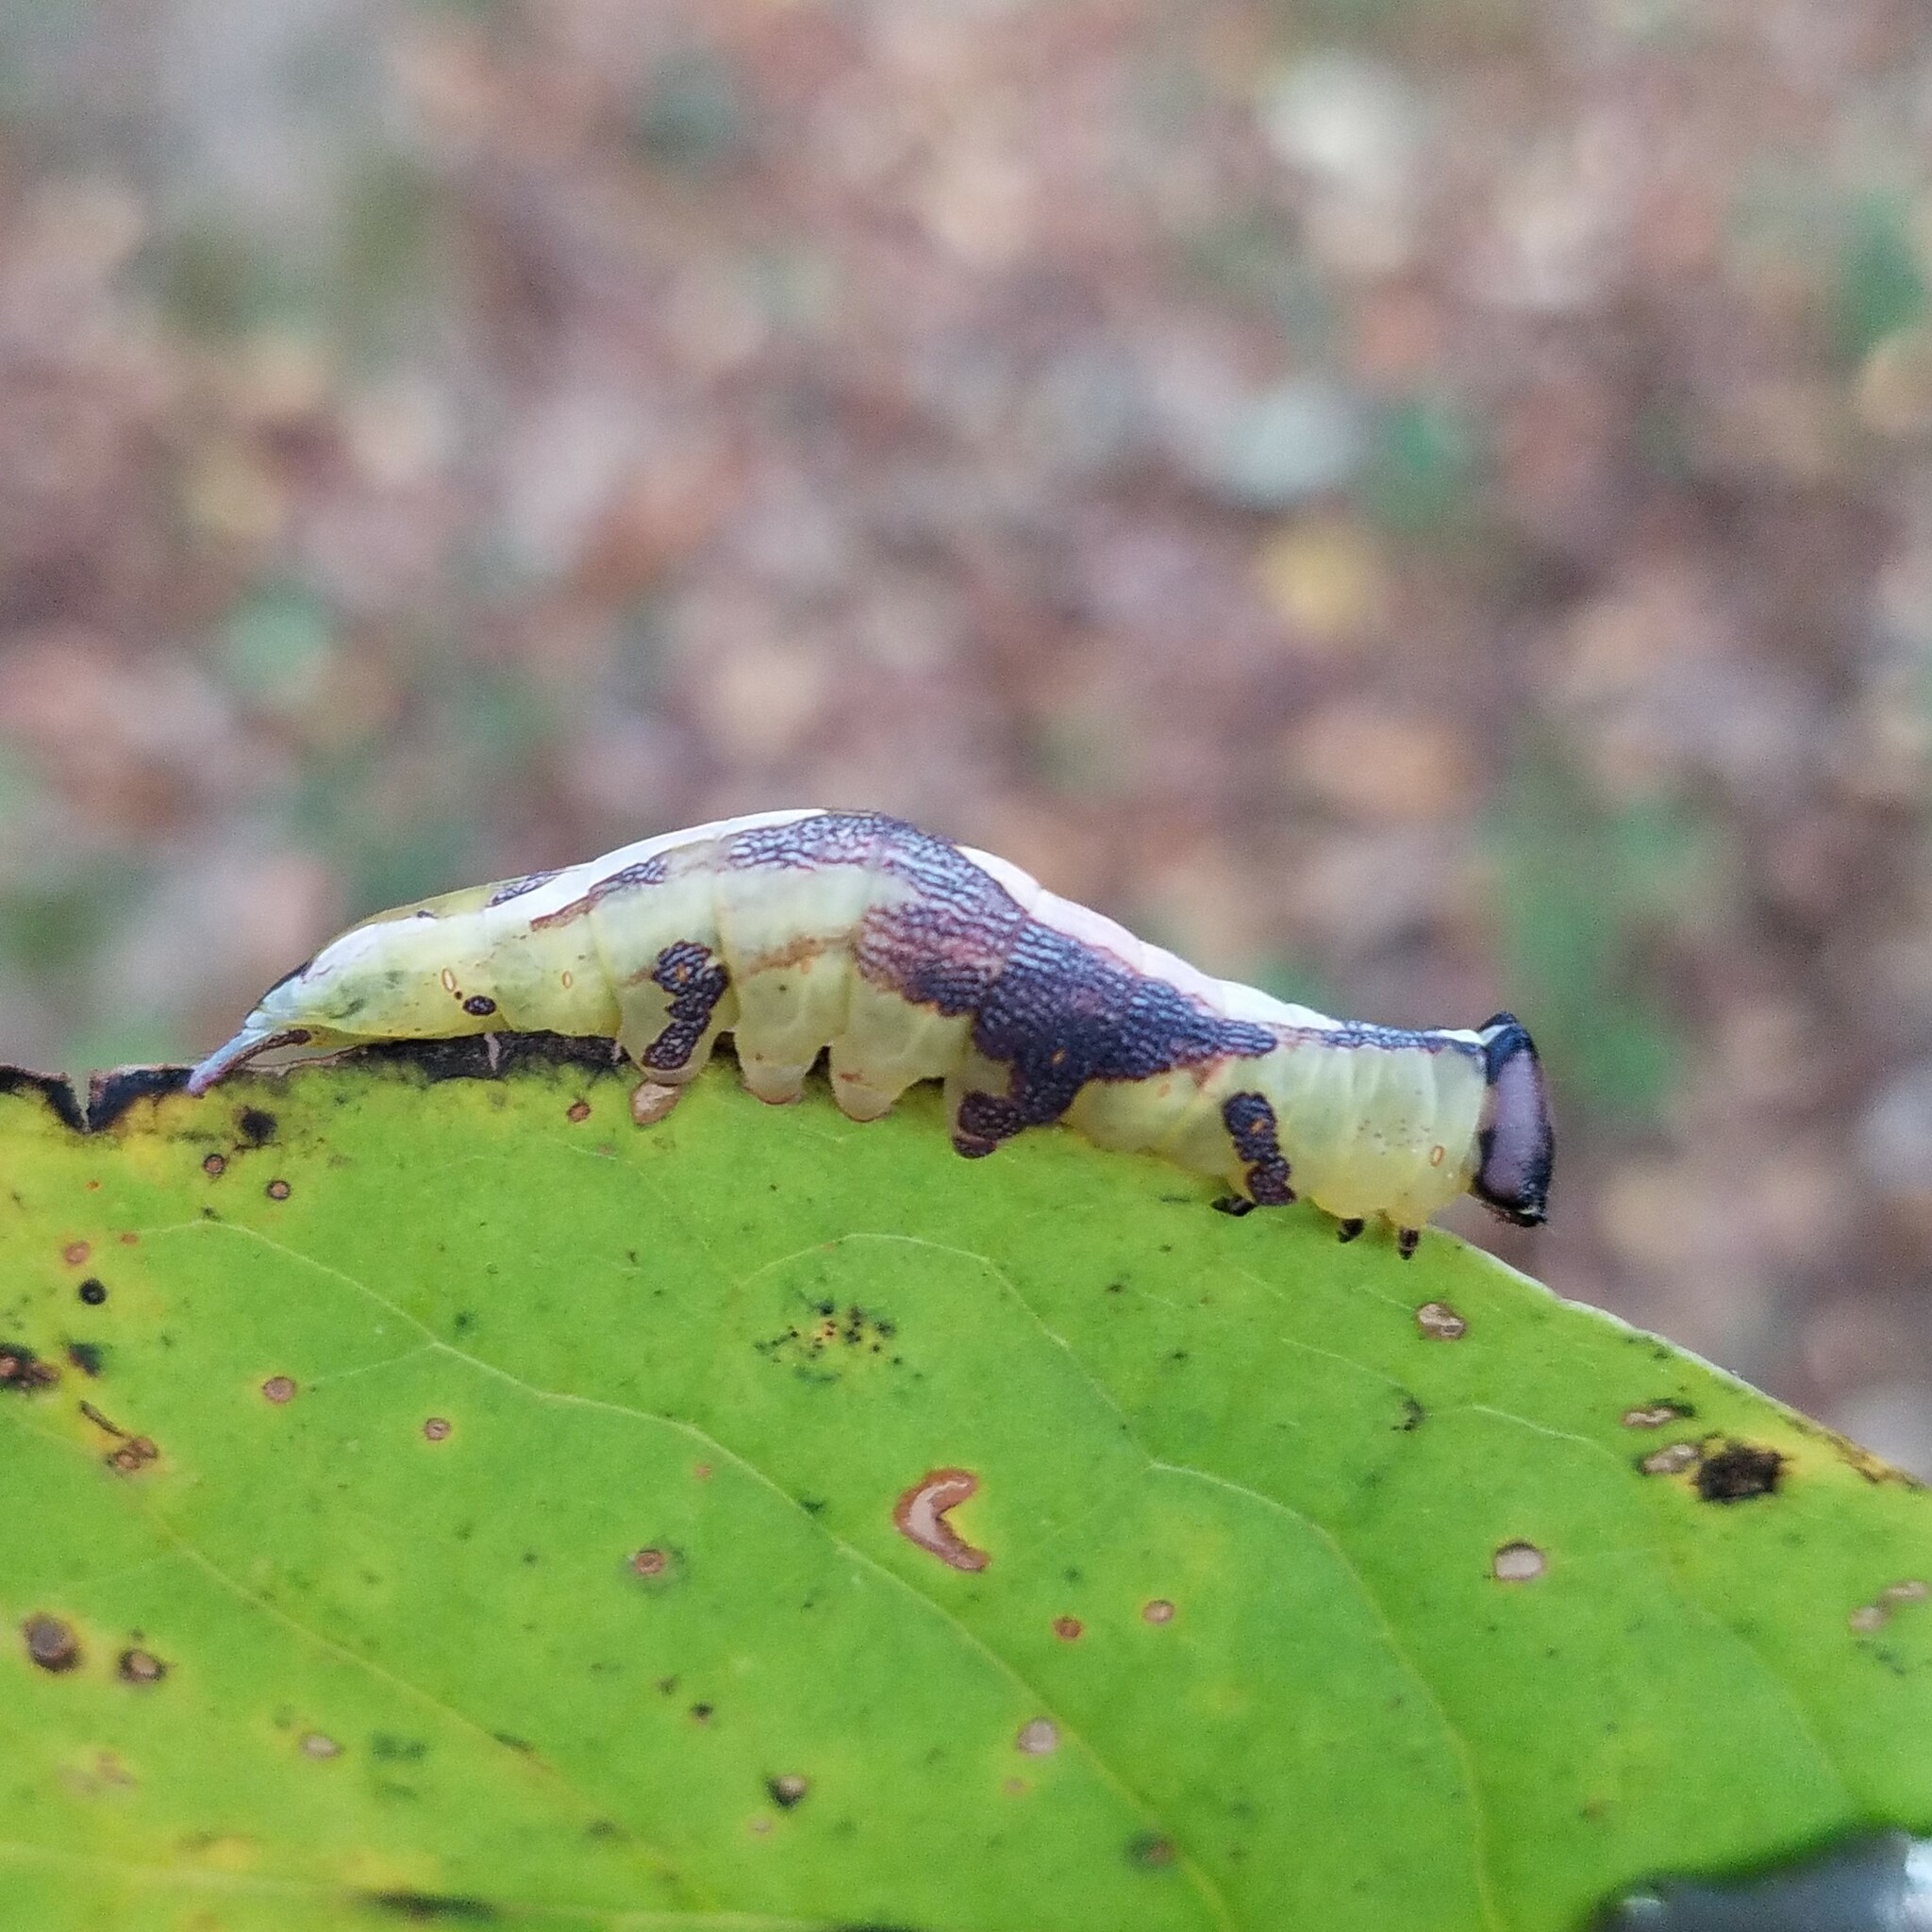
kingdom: Animalia
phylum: Arthropoda
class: Insecta
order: Lepidoptera
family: Notodontidae
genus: Disphragis
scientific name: Disphragis Cecrita biundata
